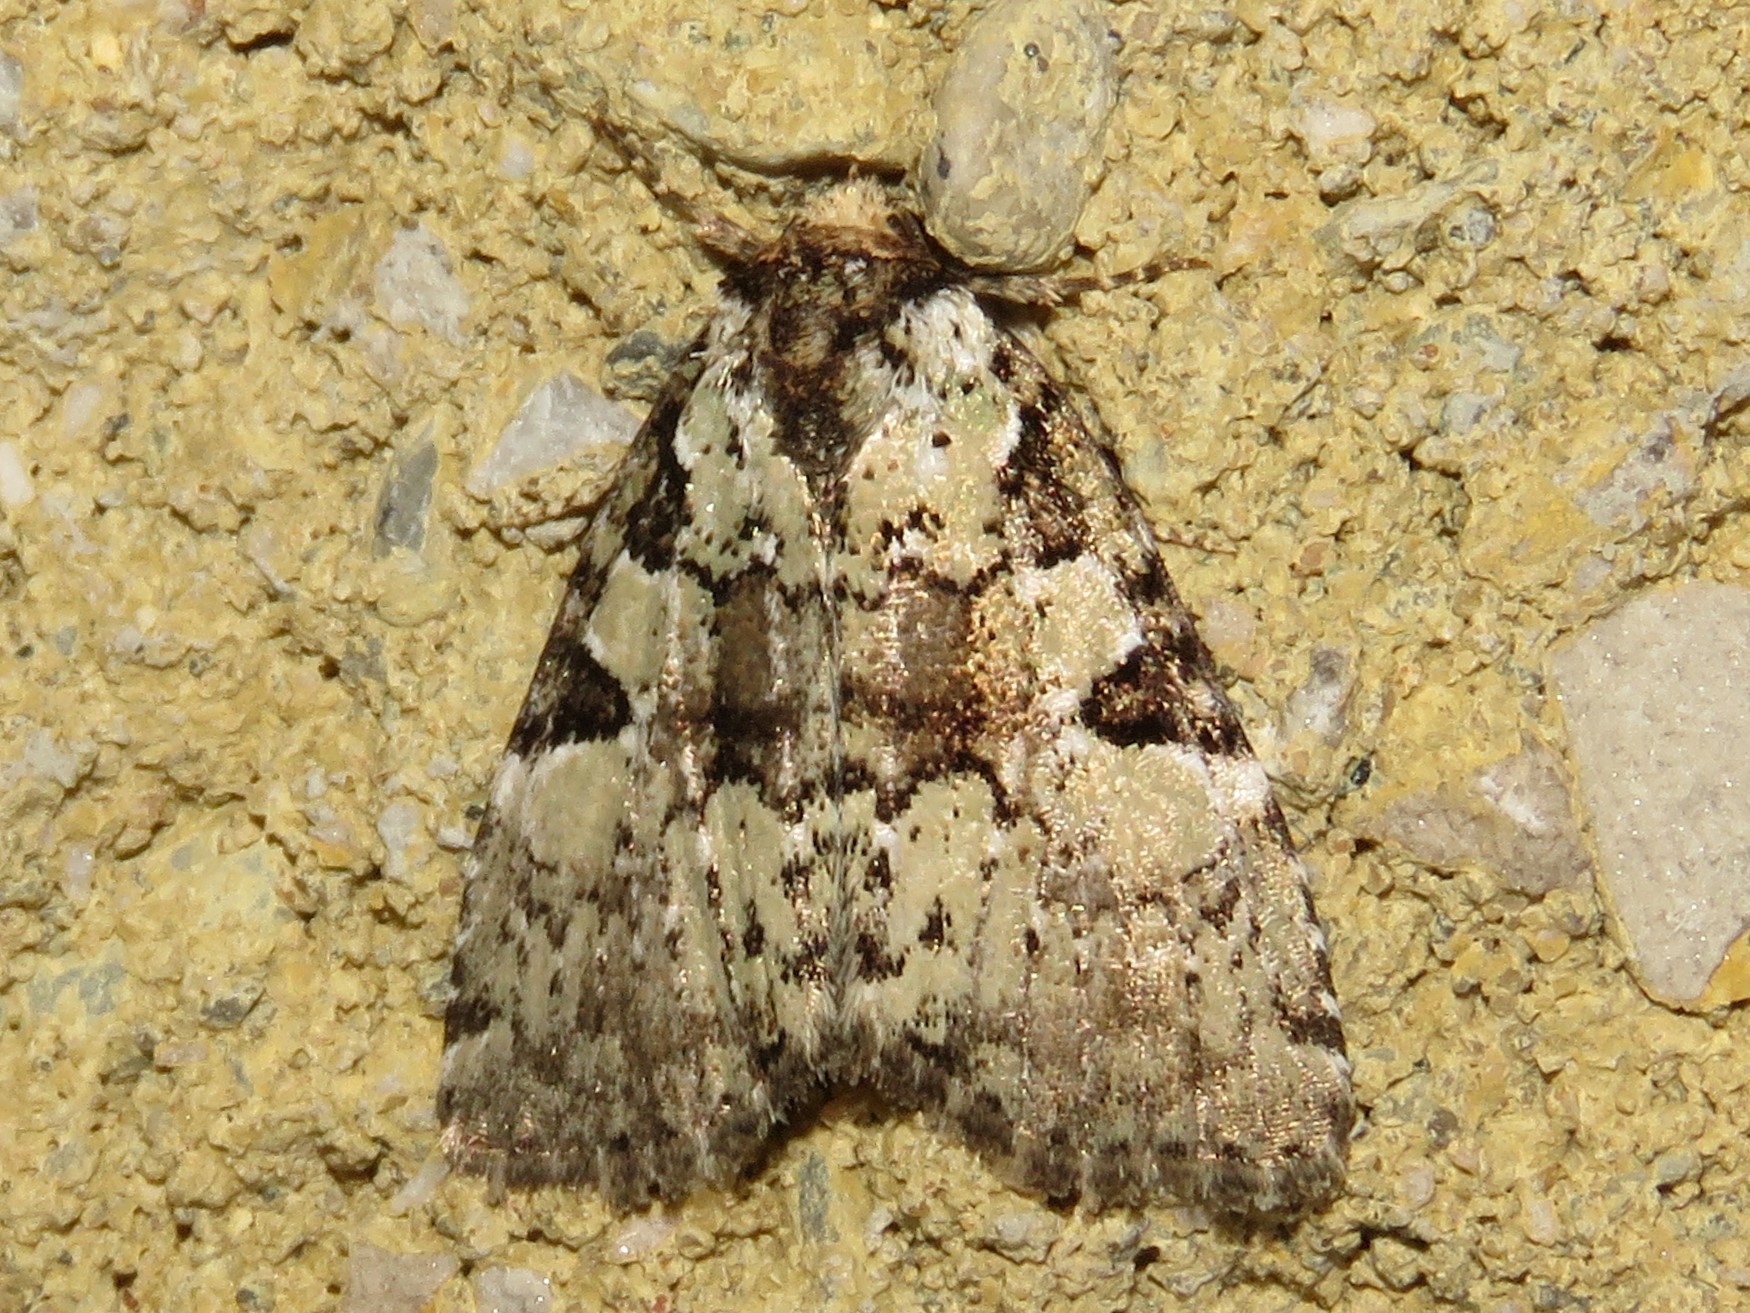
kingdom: Animalia
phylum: Arthropoda
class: Insecta
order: Lepidoptera
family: Noctuidae
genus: Leuconycta
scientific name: Leuconycta lepidula
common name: Marbled-green leuconycta moth
